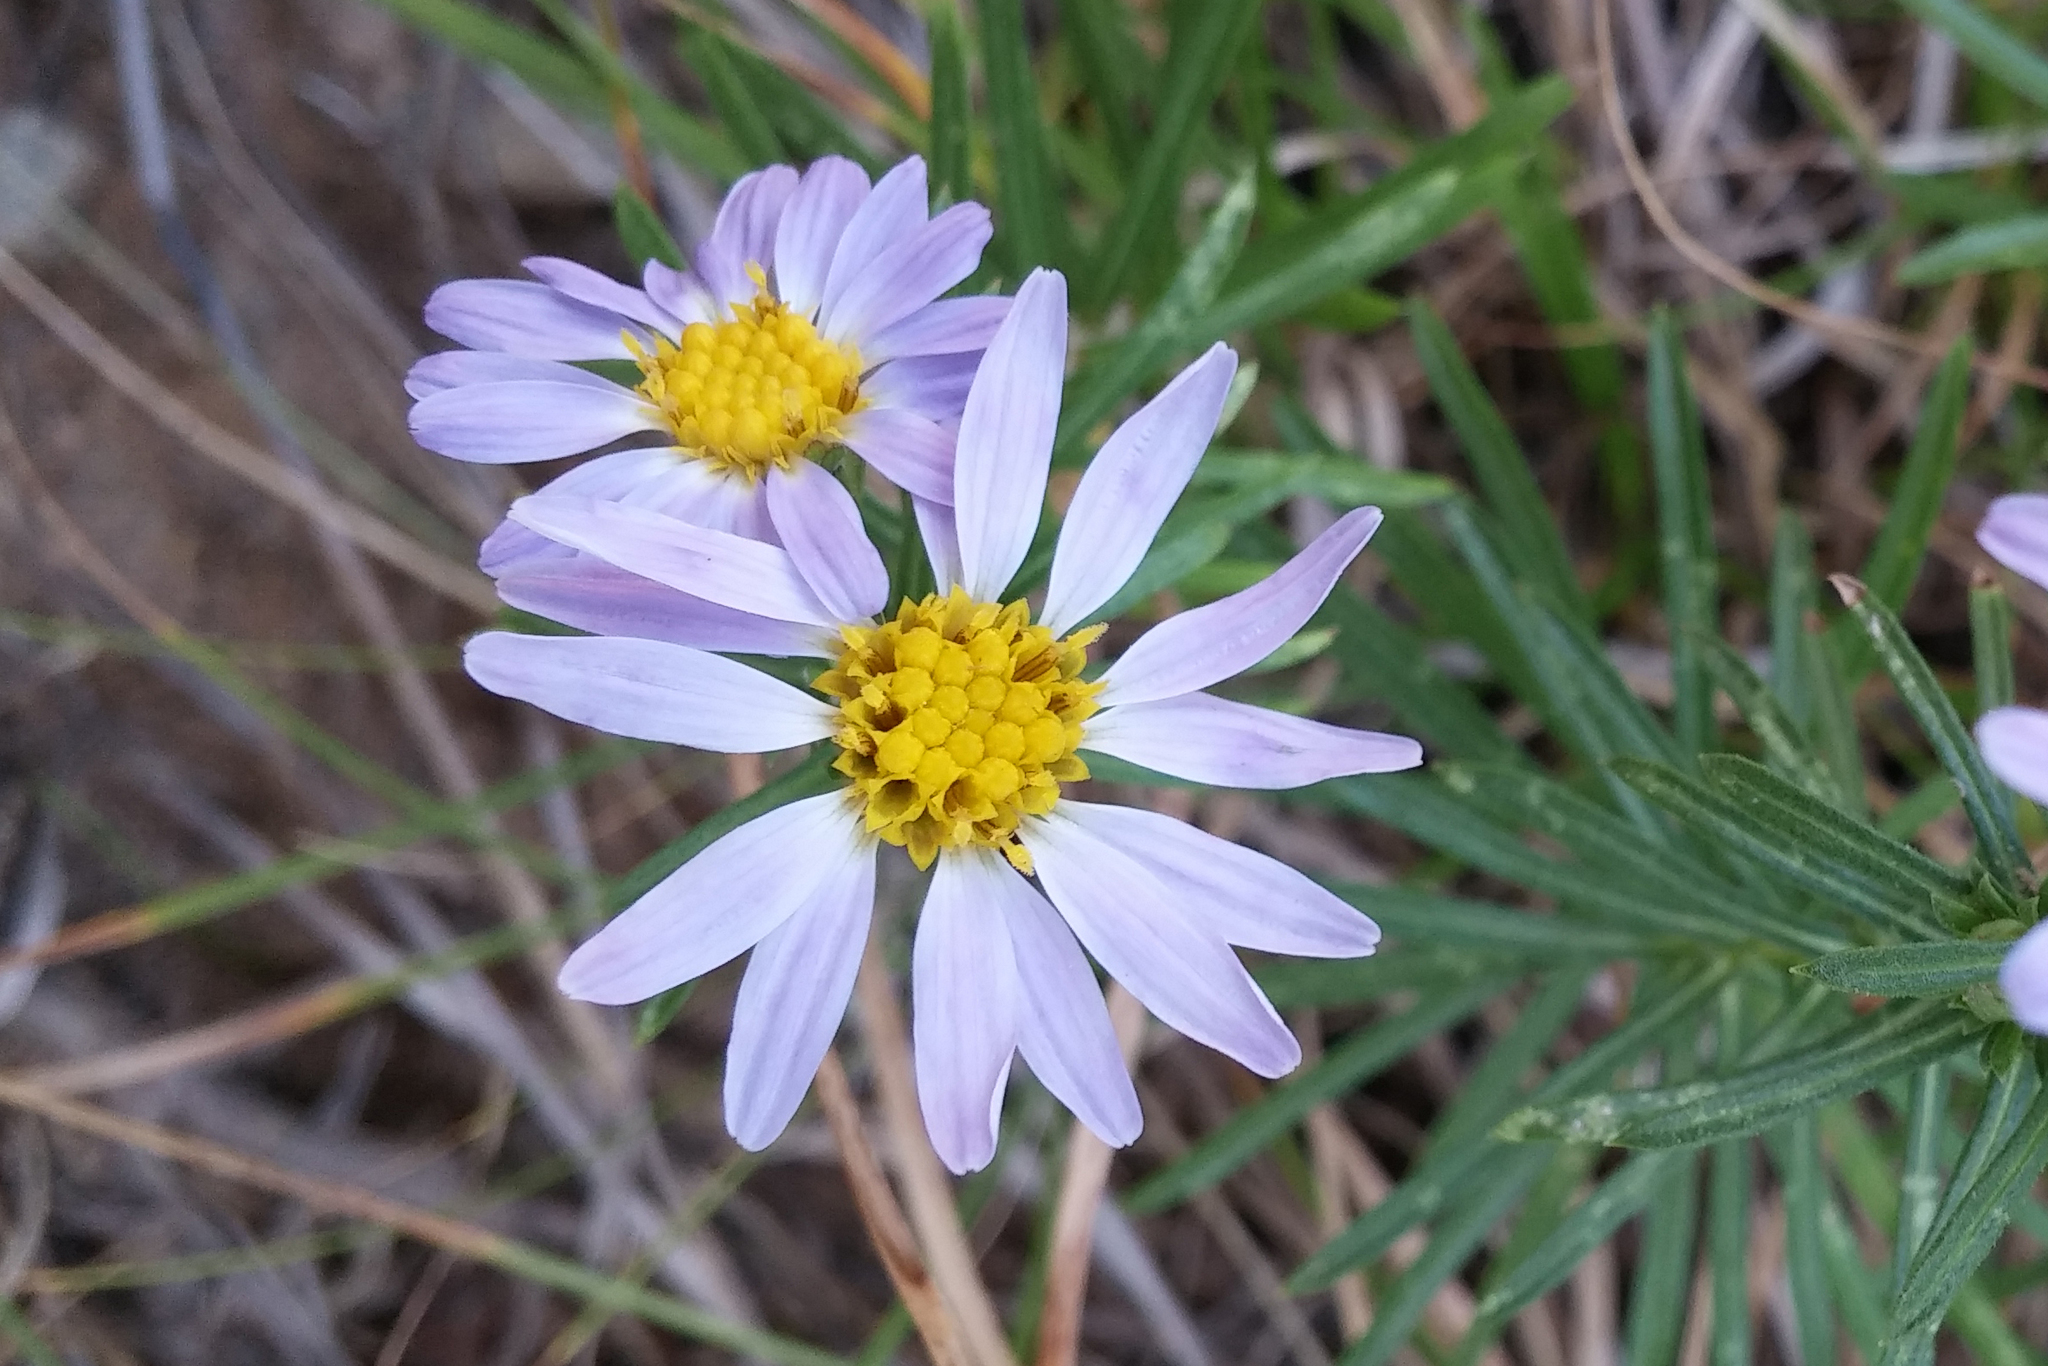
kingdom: Plantae
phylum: Tracheophyta
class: Magnoliopsida
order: Asterales
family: Asteraceae
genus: Ionactis
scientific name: Ionactis linariifolia
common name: Flax-leaf aster
